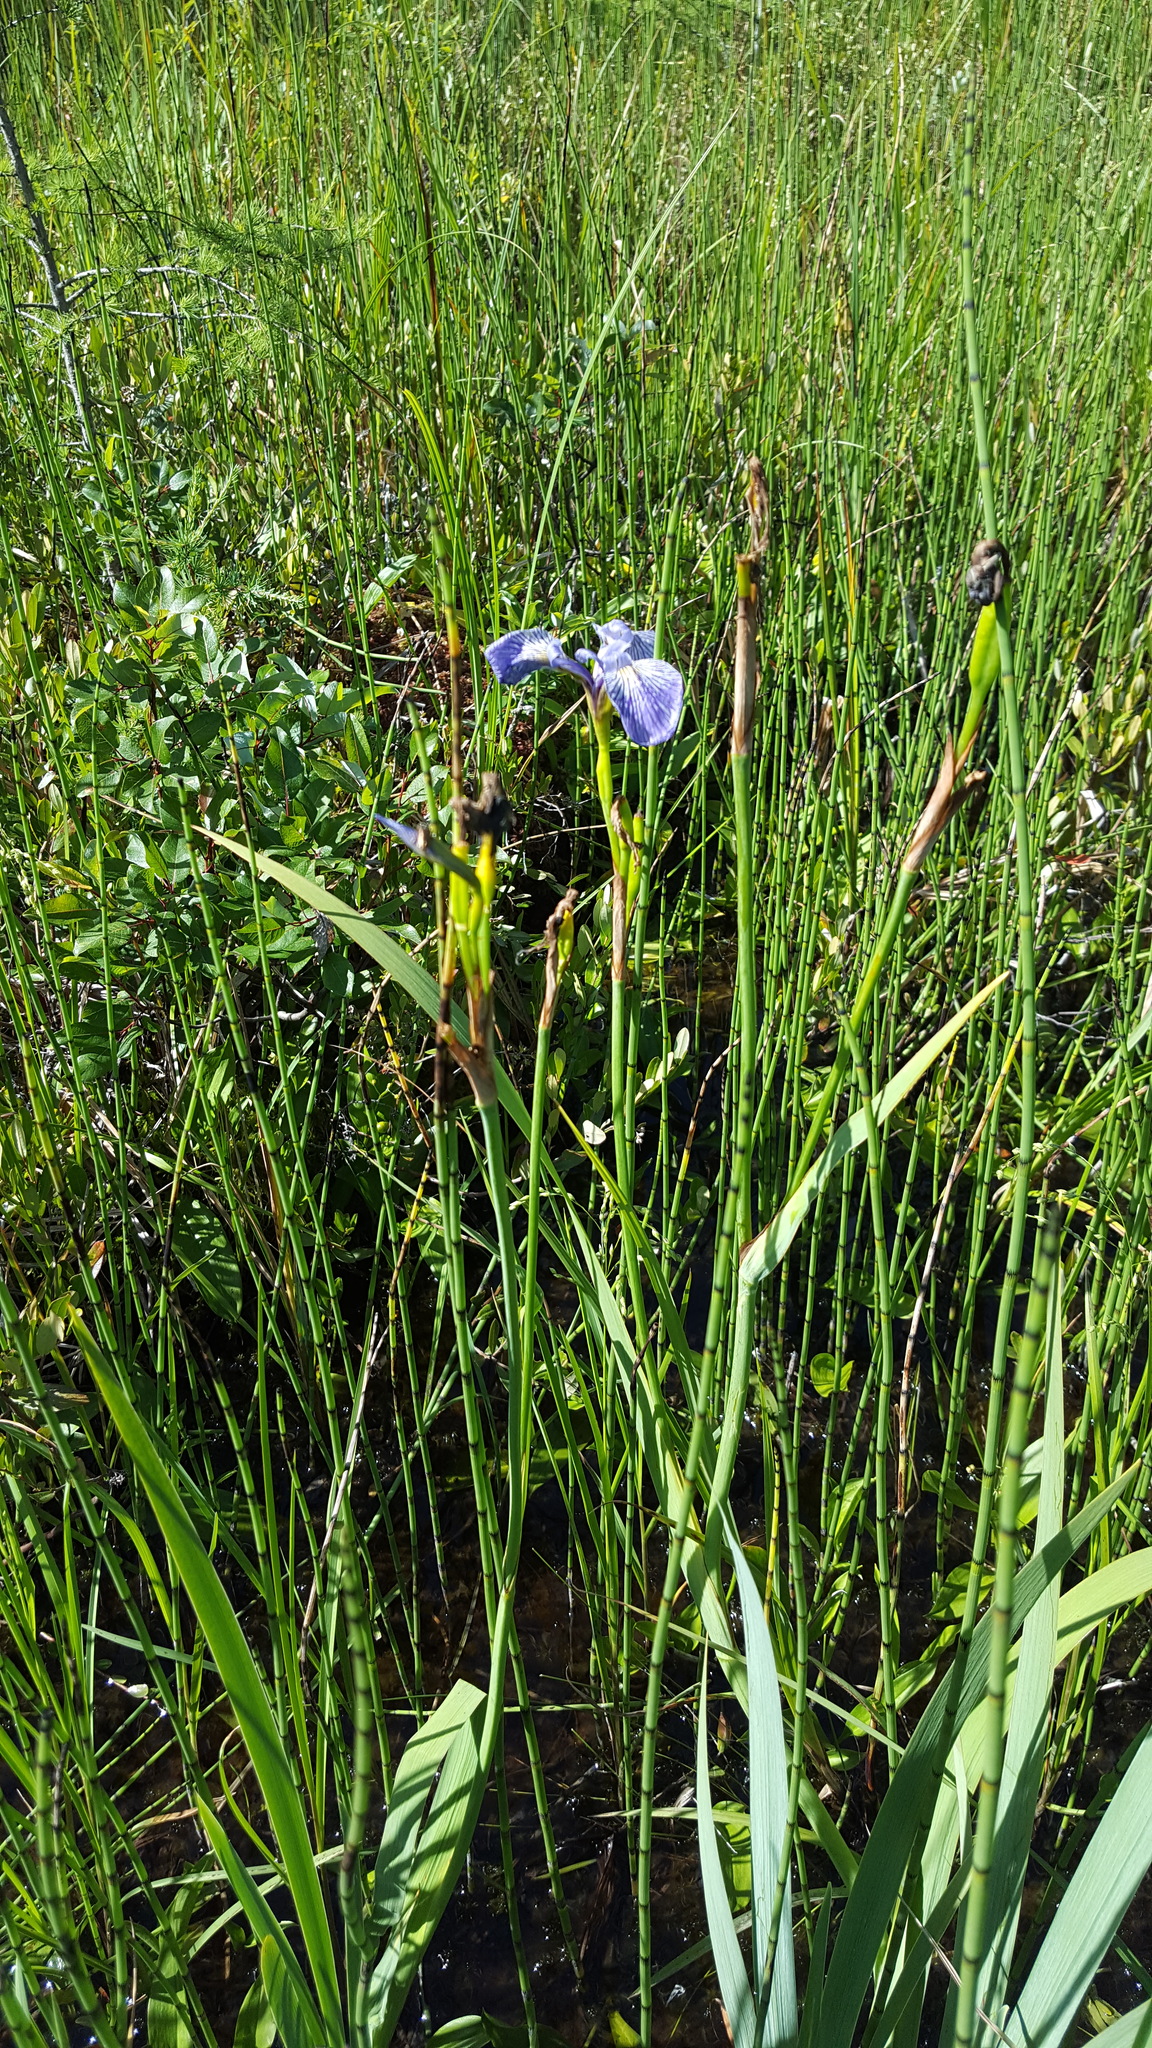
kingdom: Plantae
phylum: Tracheophyta
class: Liliopsida
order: Asparagales
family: Iridaceae
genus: Iris
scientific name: Iris versicolor
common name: Purple iris
